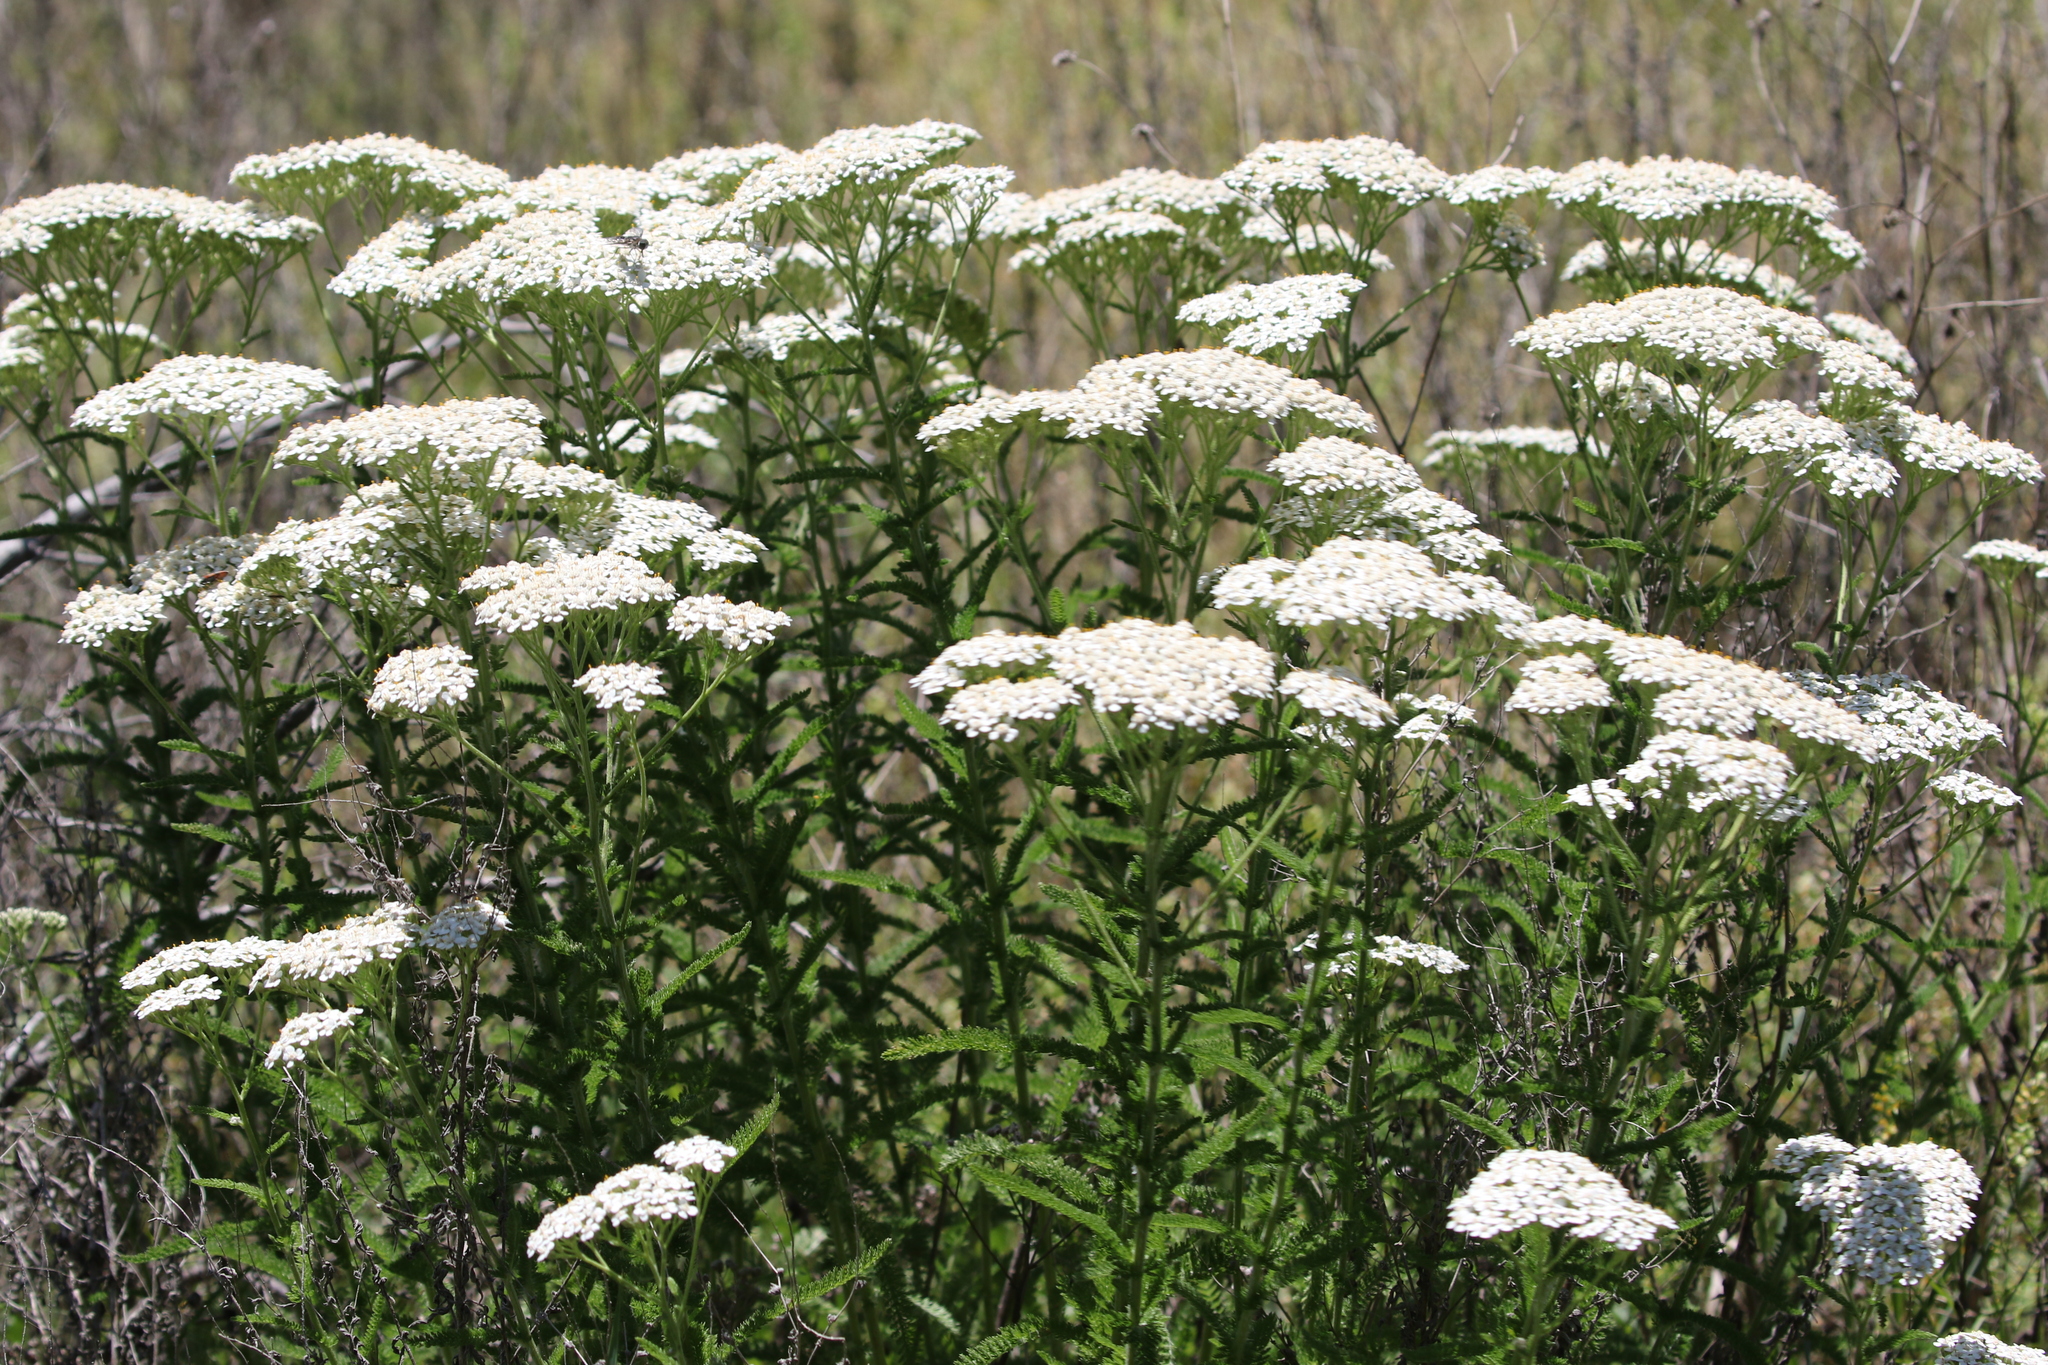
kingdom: Plantae
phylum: Tracheophyta
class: Magnoliopsida
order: Asterales
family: Asteraceae
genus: Achillea
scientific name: Achillea millefolium
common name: Yarrow
